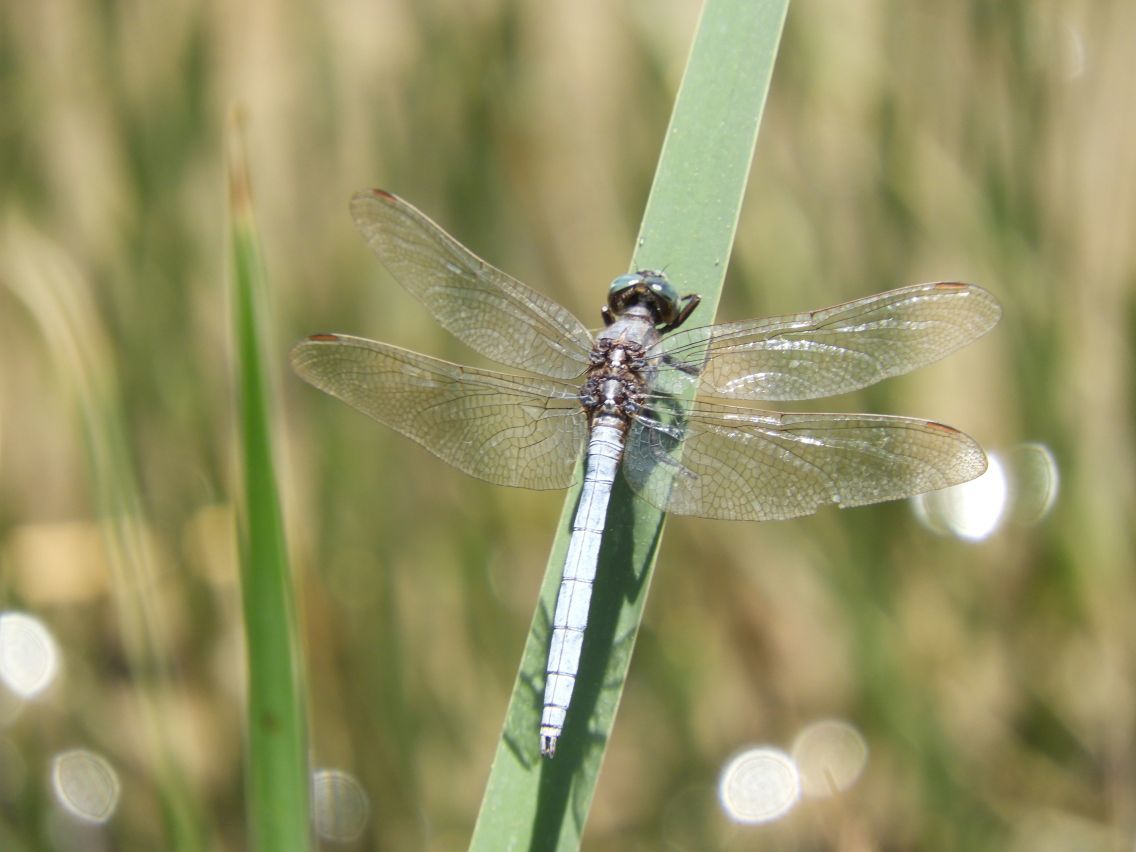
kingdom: Animalia
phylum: Arthropoda
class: Insecta
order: Odonata
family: Libellulidae
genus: Orthetrum
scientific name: Orthetrum caffrum
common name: Two-striped skimmer
